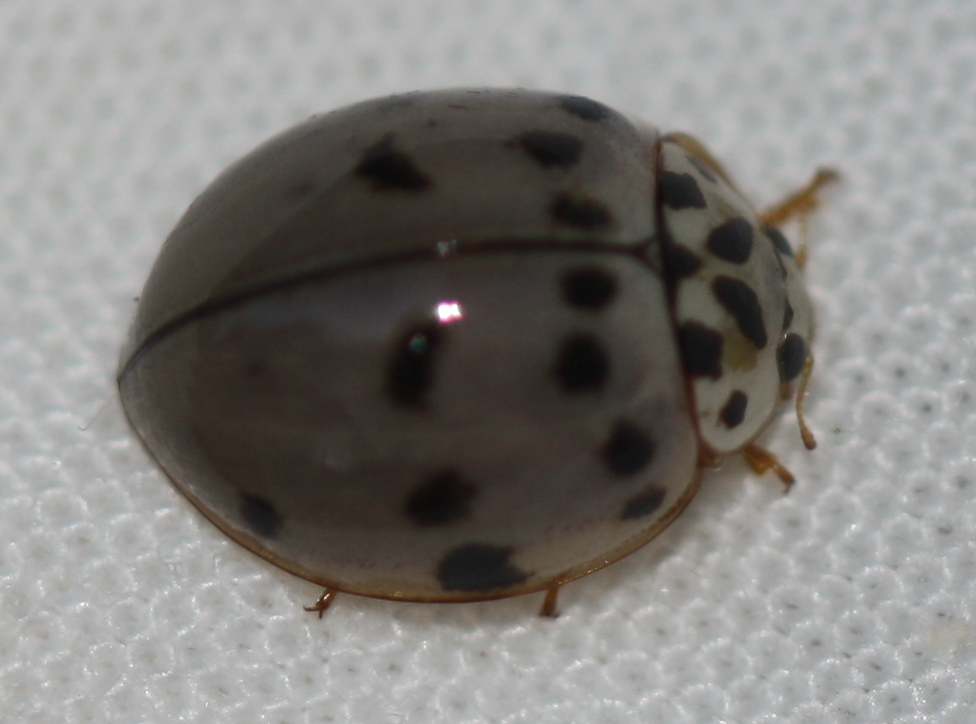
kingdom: Animalia
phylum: Arthropoda
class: Insecta
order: Coleoptera
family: Coccinellidae
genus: Olla
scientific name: Olla v-nigrum
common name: Ashy gray lady beetle
